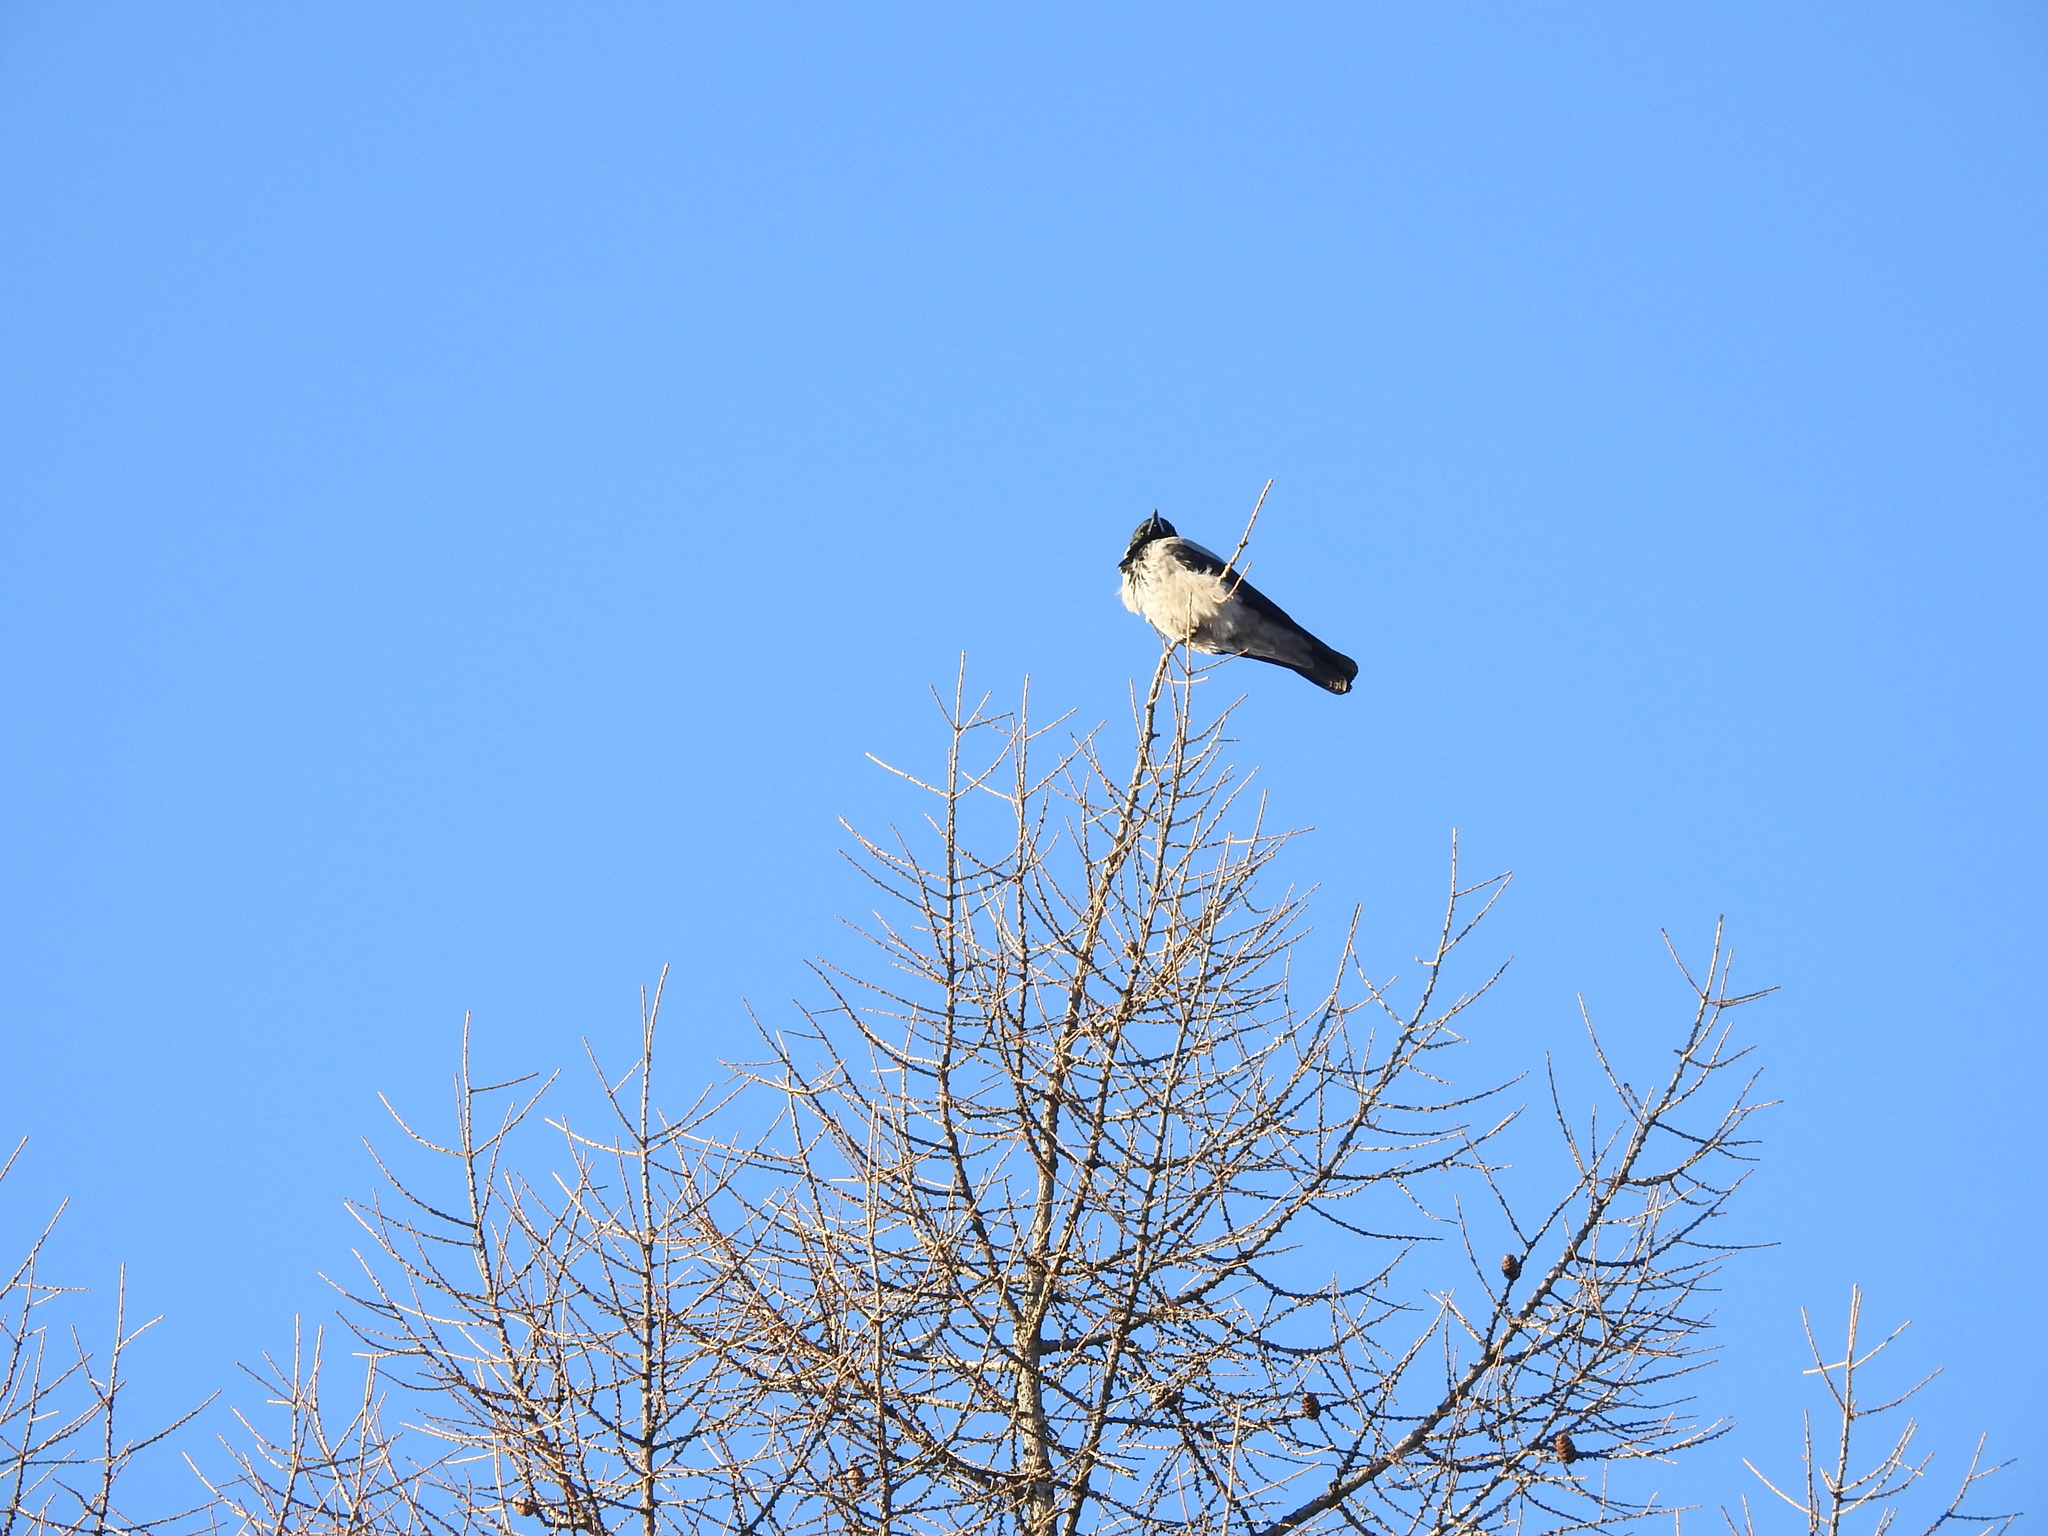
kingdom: Animalia
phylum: Chordata
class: Aves
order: Passeriformes
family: Corvidae
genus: Corvus
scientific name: Corvus cornix
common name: Hooded crow
